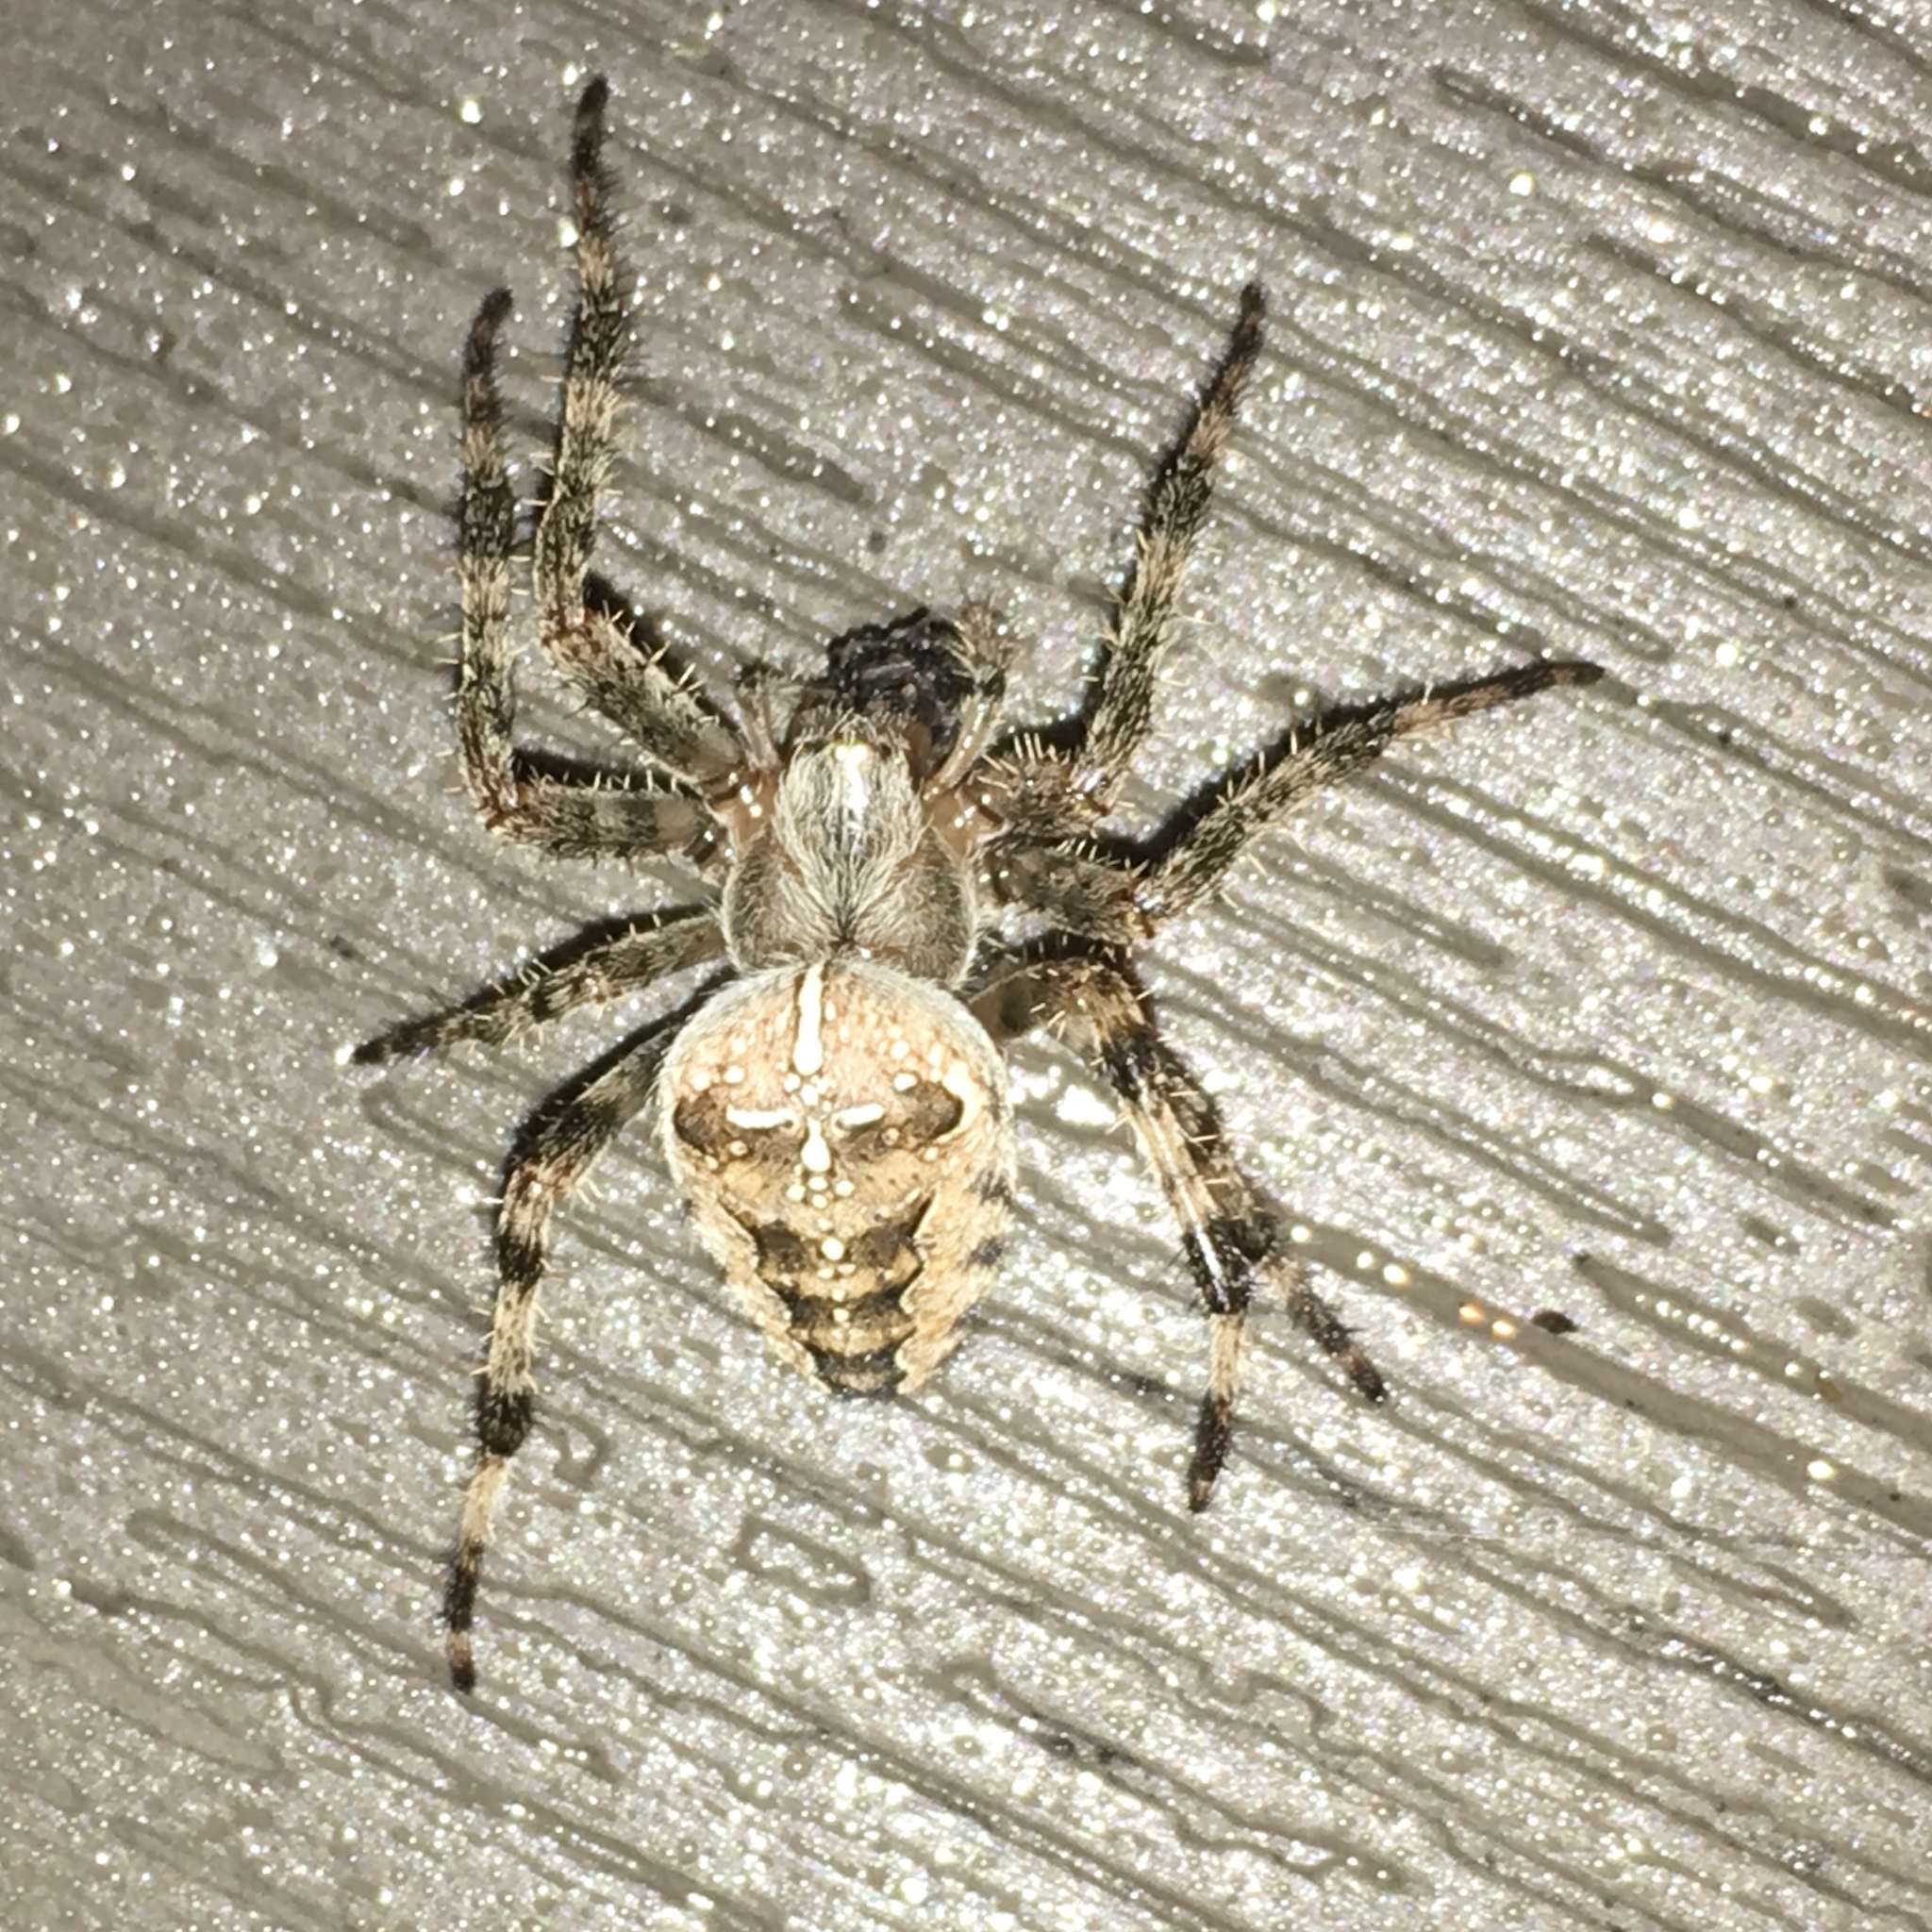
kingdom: Animalia
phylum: Arthropoda
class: Arachnida
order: Araneae
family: Araneidae
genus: Araneus
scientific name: Araneus diadematus
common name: Cross orbweaver
